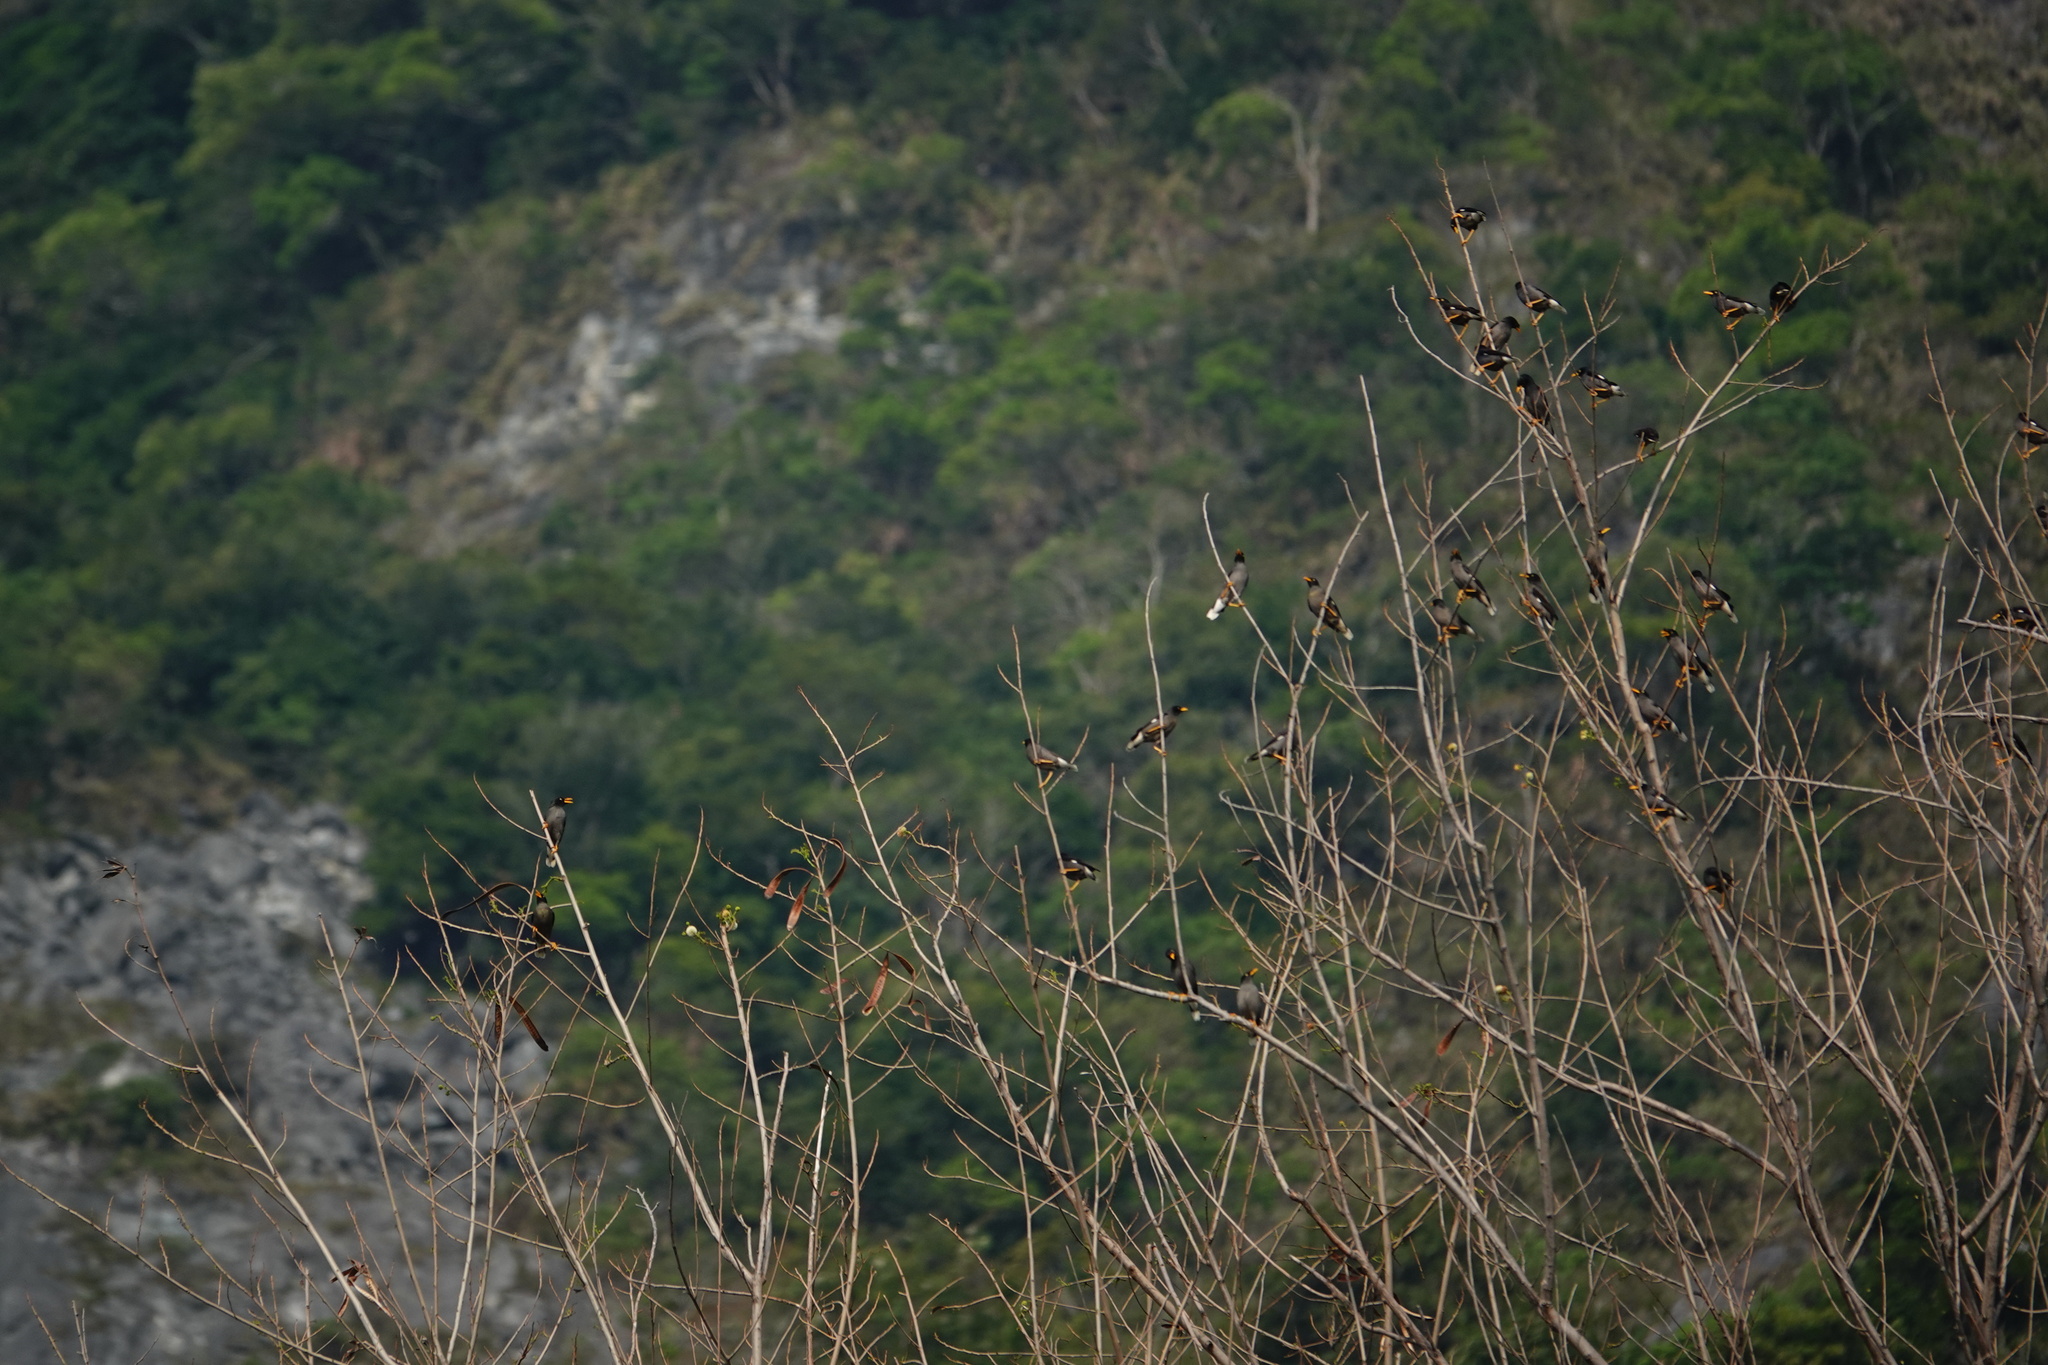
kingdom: Animalia
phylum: Chordata
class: Aves
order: Passeriformes
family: Sturnidae
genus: Acridotheres
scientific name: Acridotheres javanicus
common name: Javan myna
